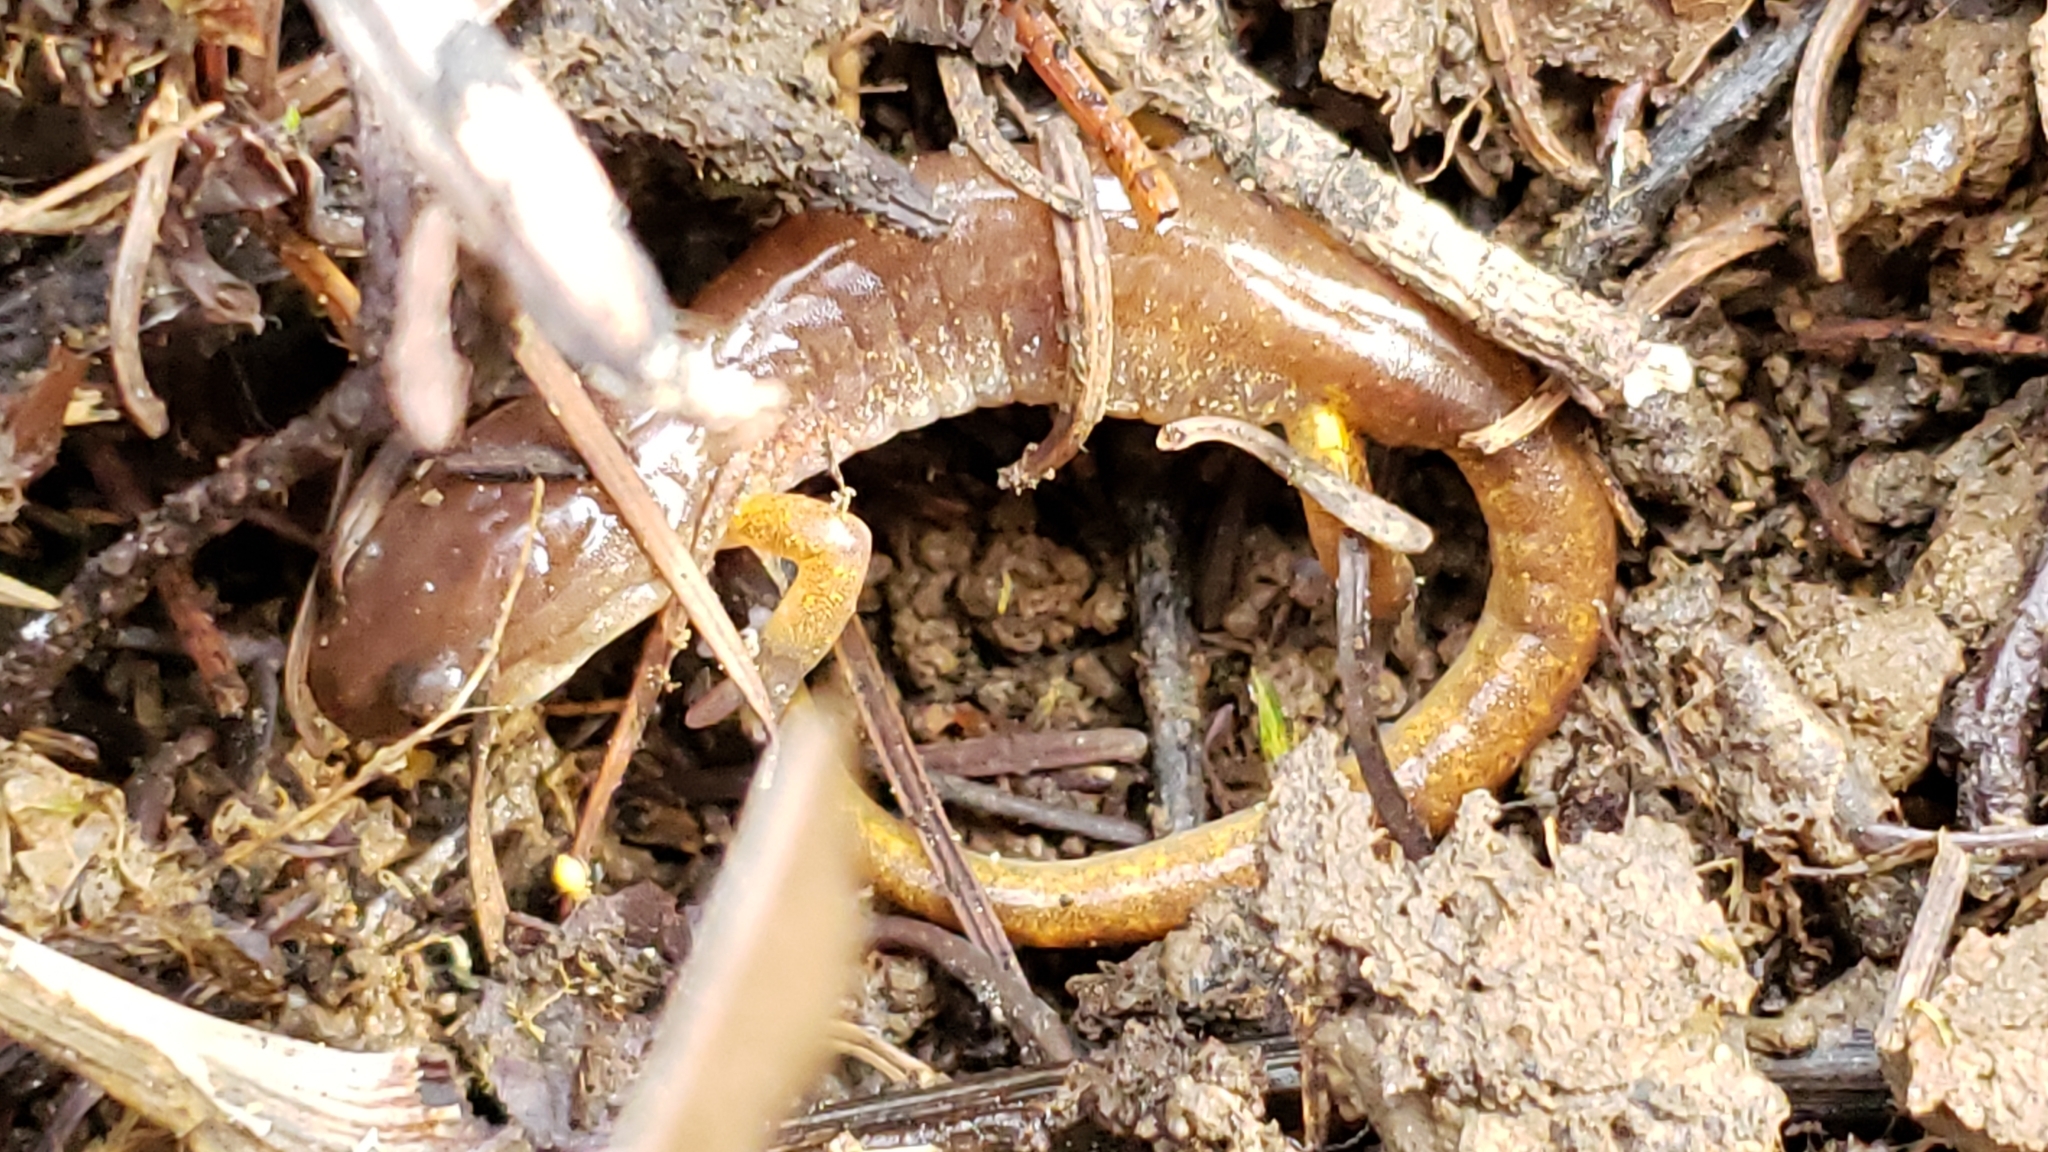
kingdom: Animalia
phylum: Chordata
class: Amphibia
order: Caudata
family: Plethodontidae
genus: Ensatina
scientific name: Ensatina eschscholtzii
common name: Ensatina
